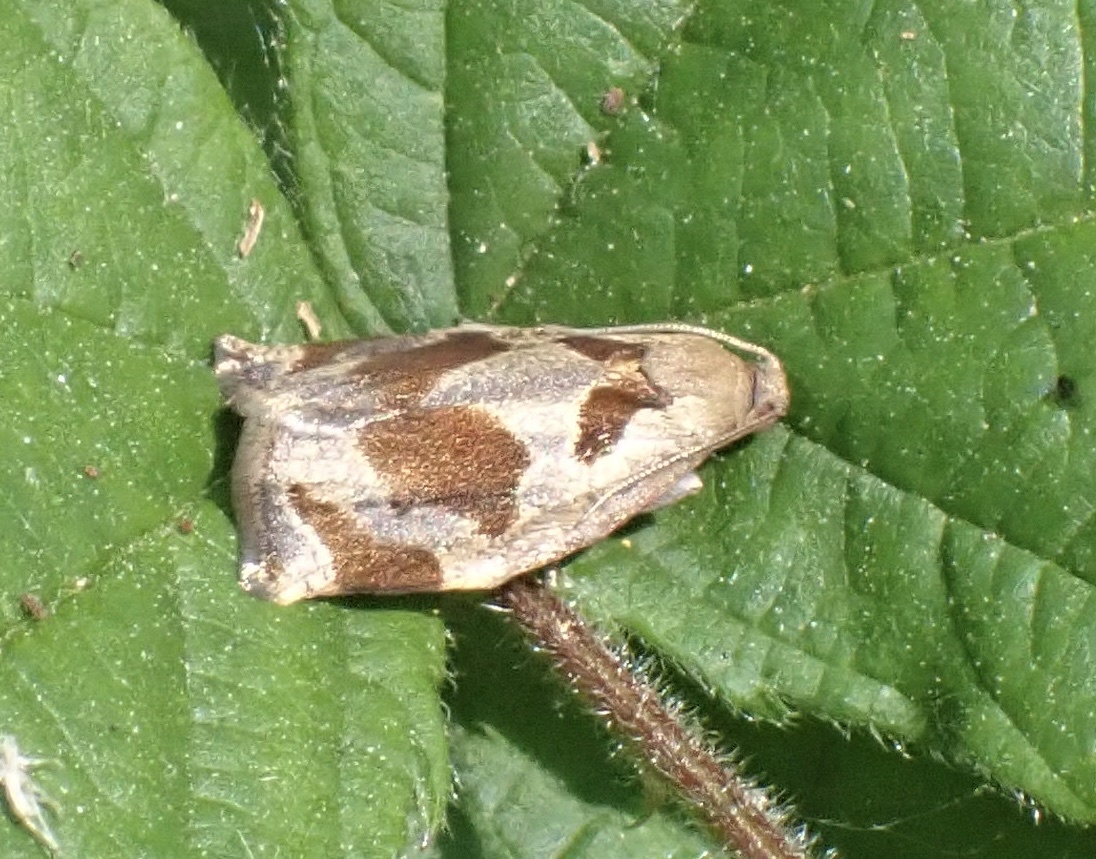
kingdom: Animalia
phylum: Arthropoda
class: Insecta
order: Lepidoptera
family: Tortricidae
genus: Archips
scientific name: Archips crataegana
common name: Brown oak tortrix
